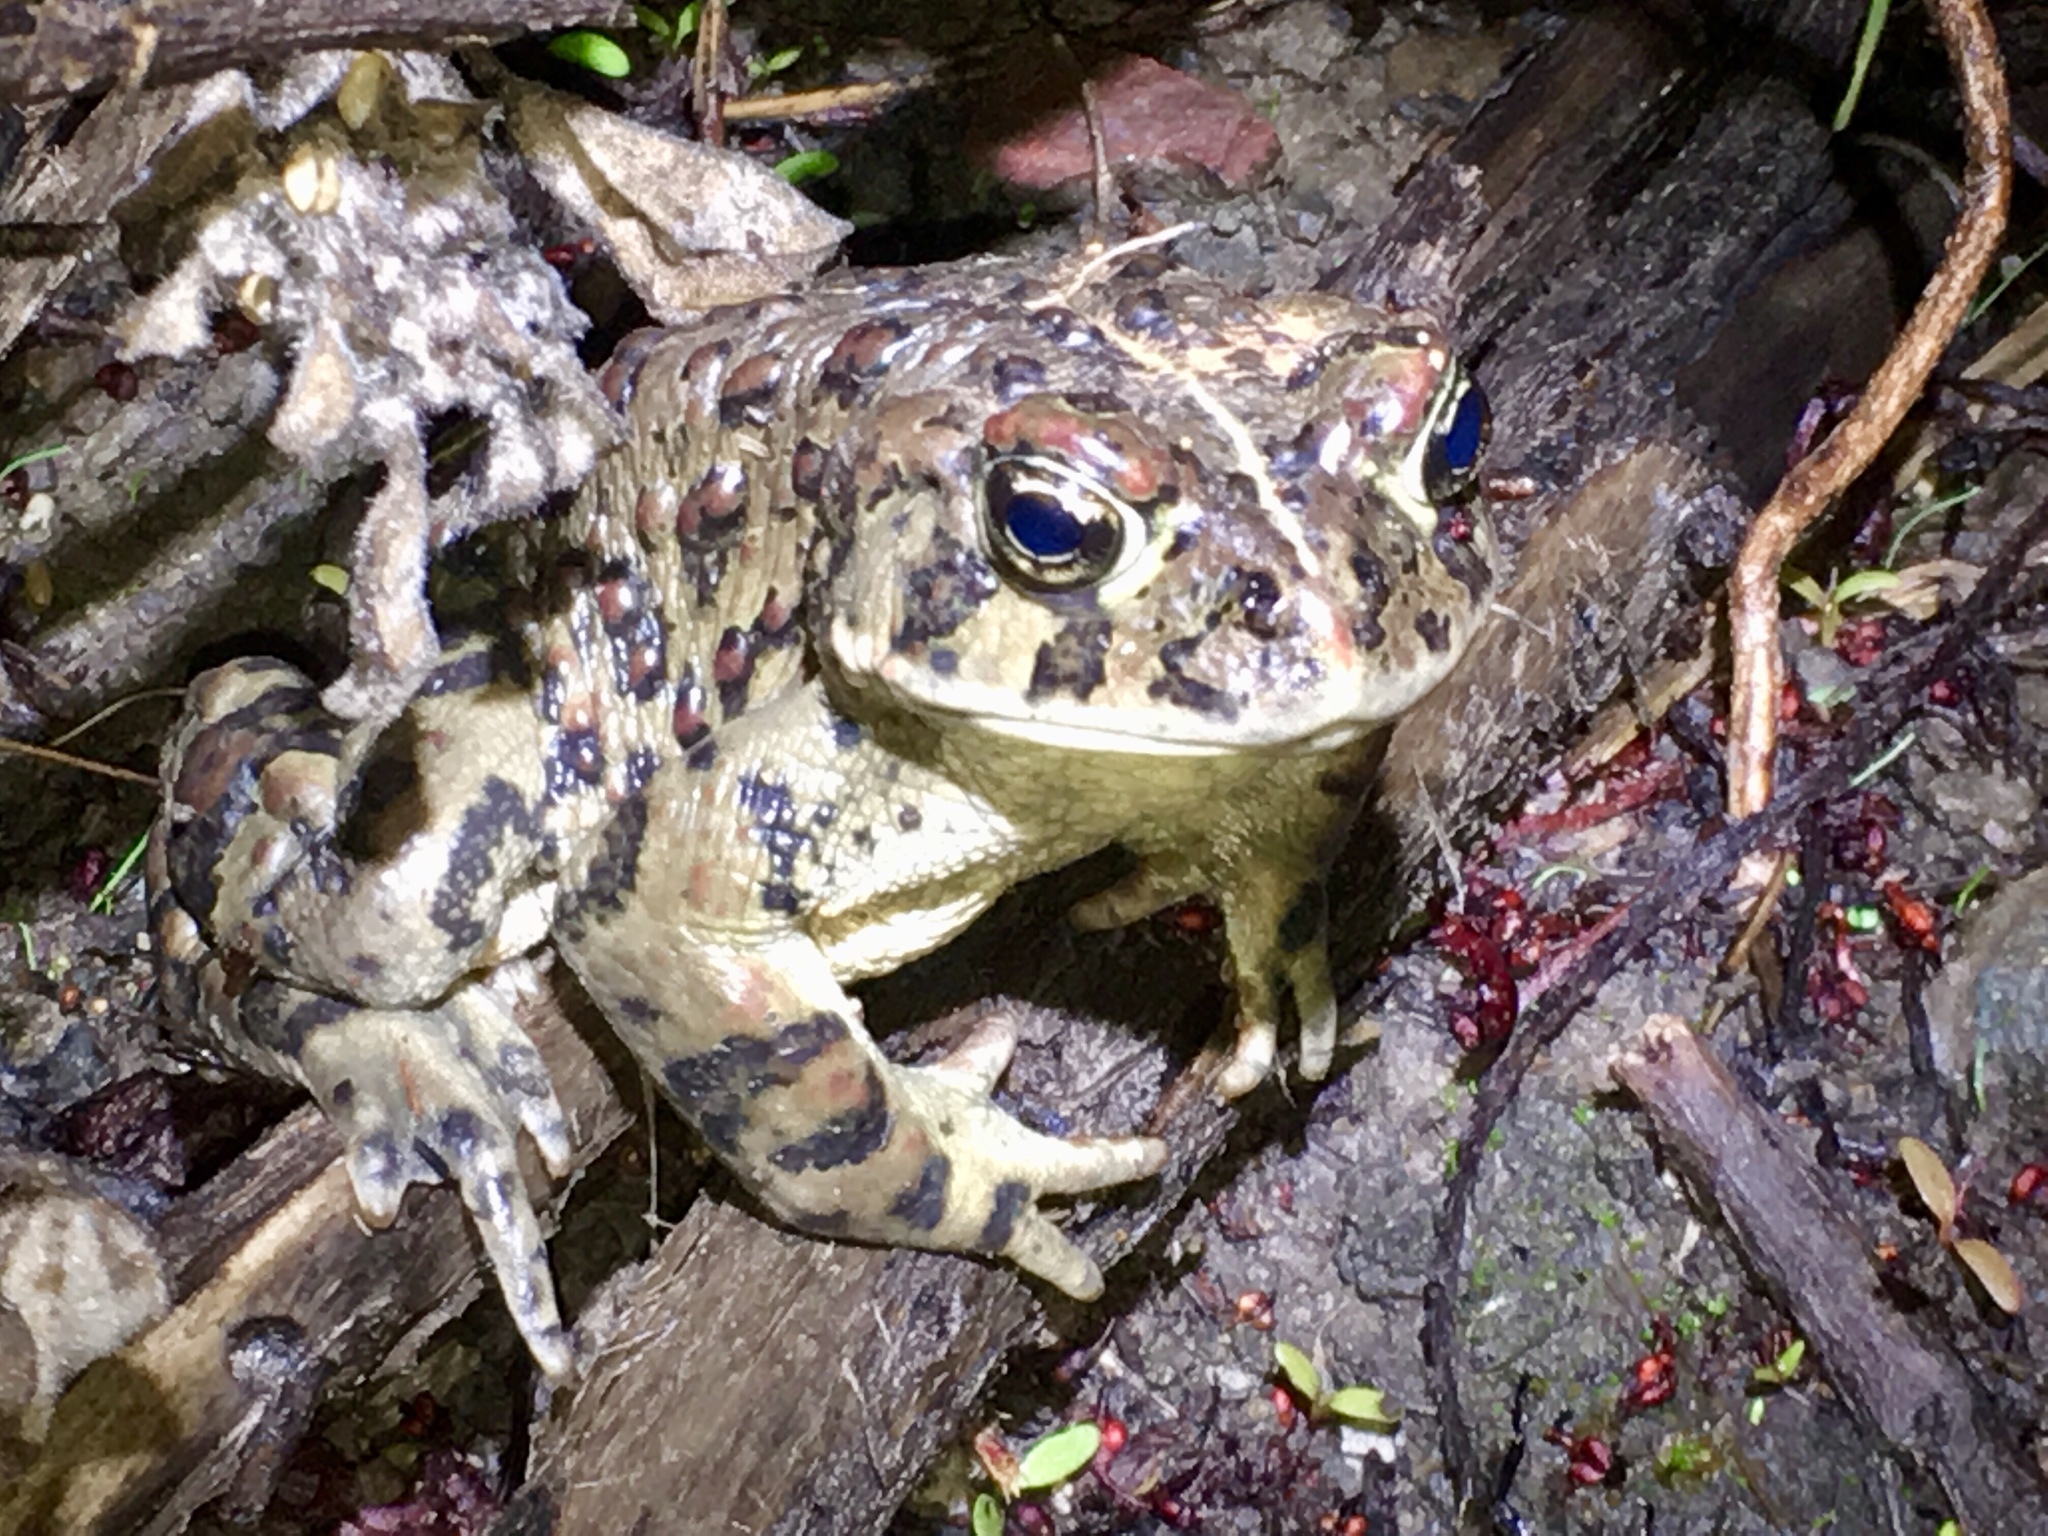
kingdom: Animalia
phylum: Chordata
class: Amphibia
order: Anura
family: Bufonidae
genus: Anaxyrus
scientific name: Anaxyrus boreas
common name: Western toad
